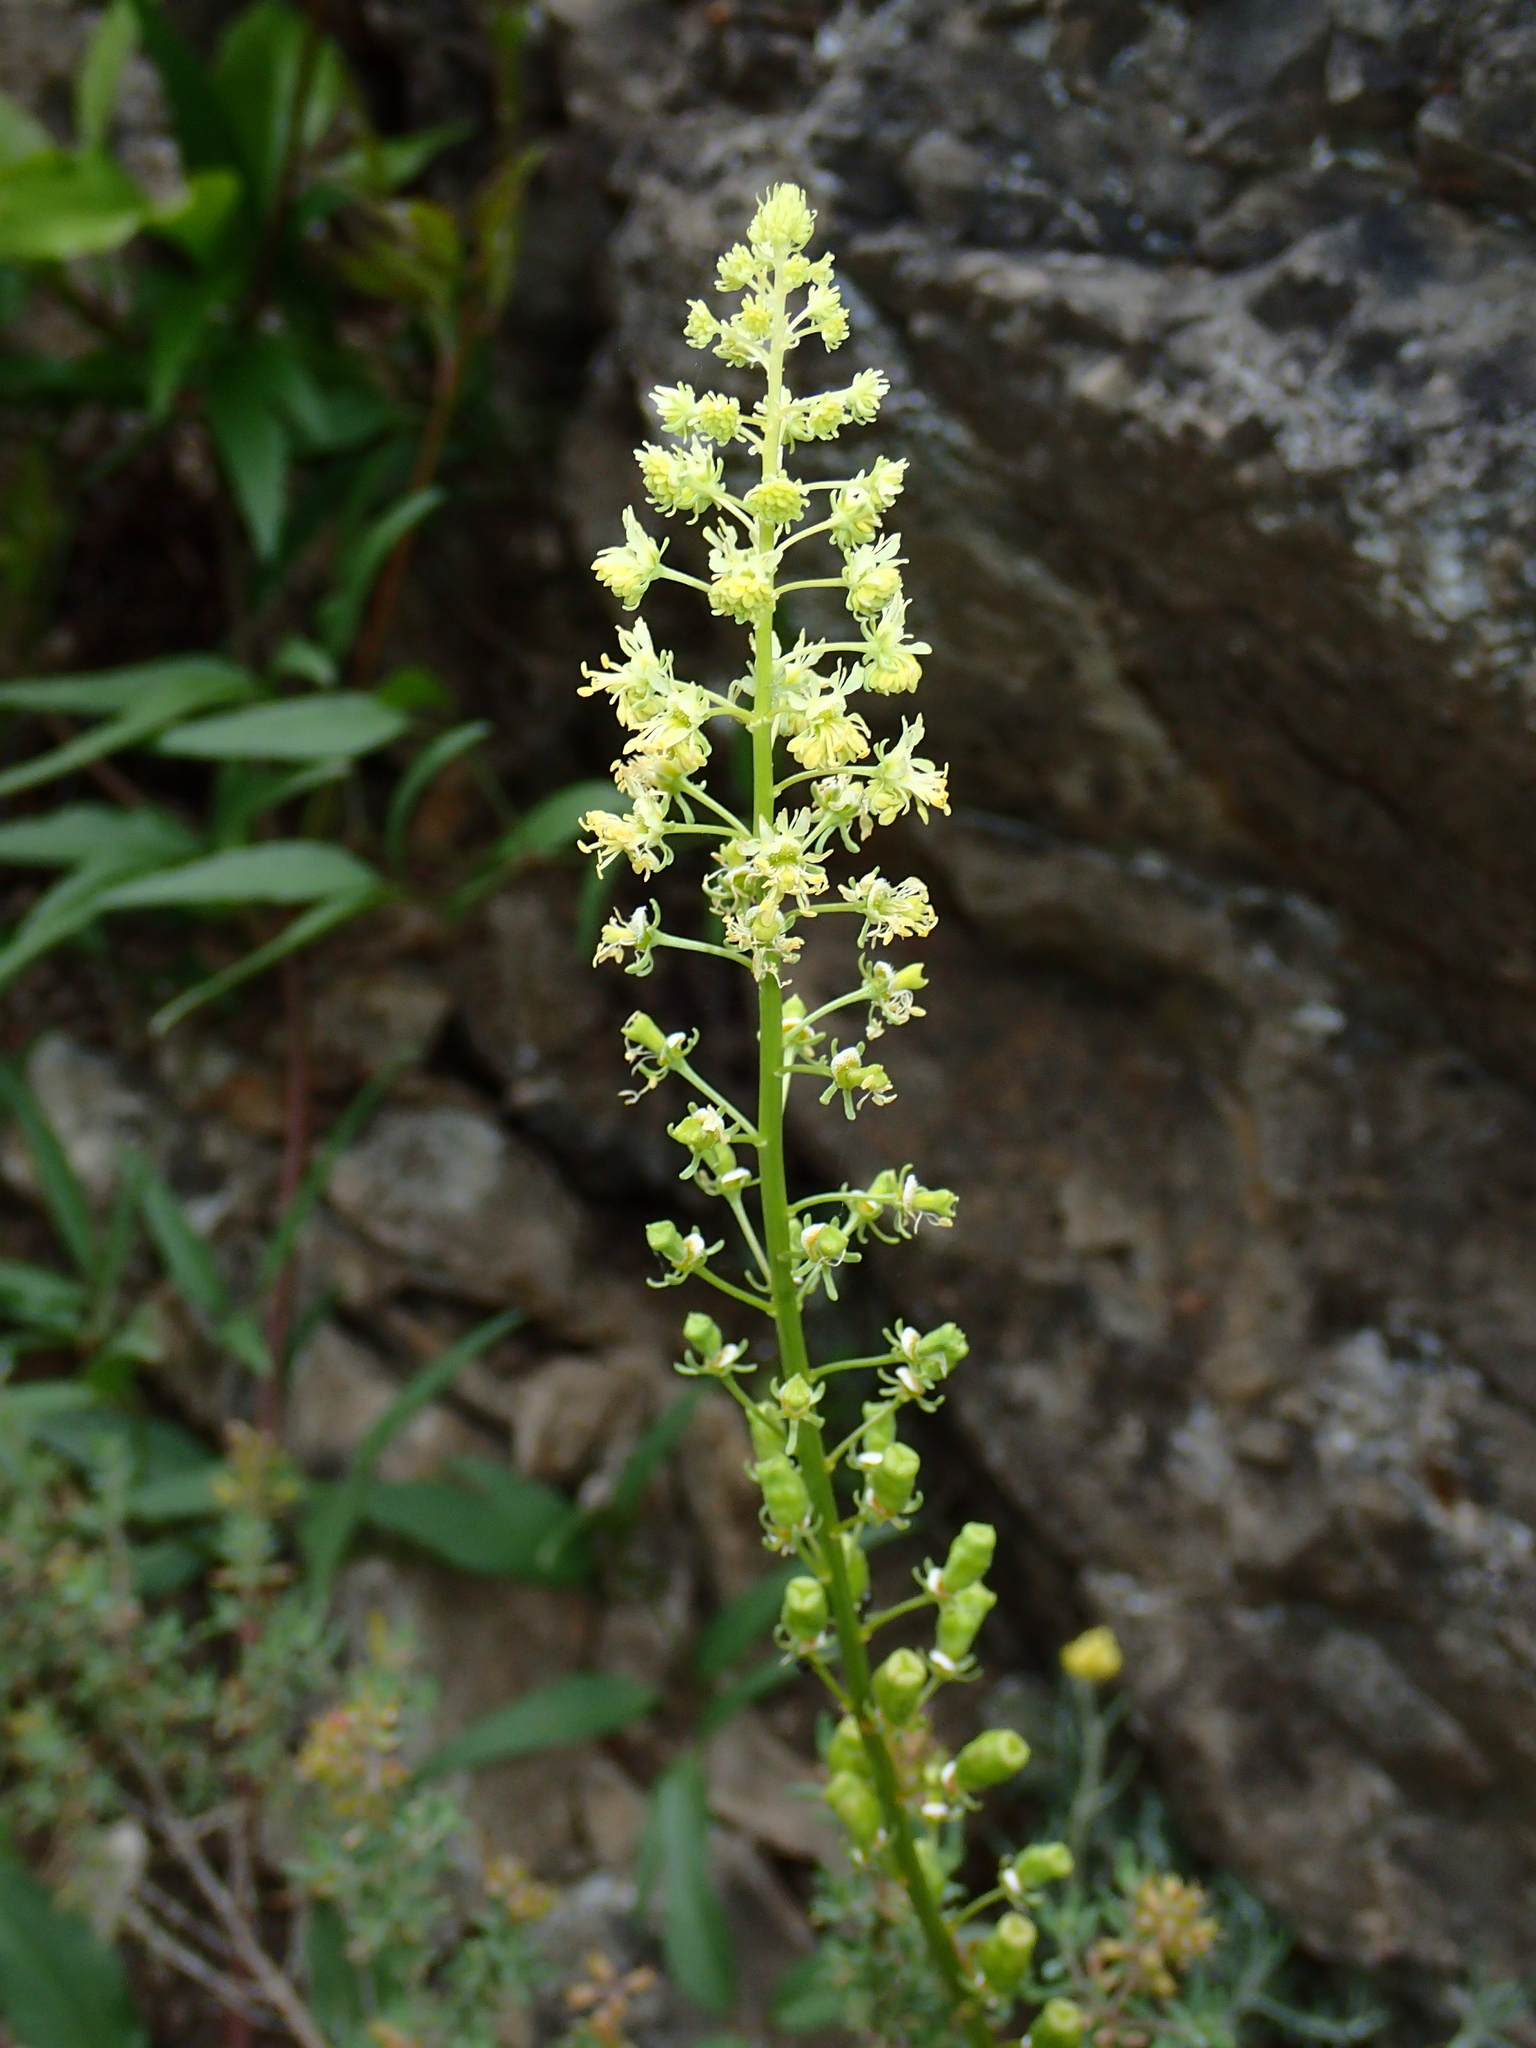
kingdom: Plantae
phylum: Tracheophyta
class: Magnoliopsida
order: Brassicales
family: Resedaceae
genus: Reseda
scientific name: Reseda lutea
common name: Wild mignonette
